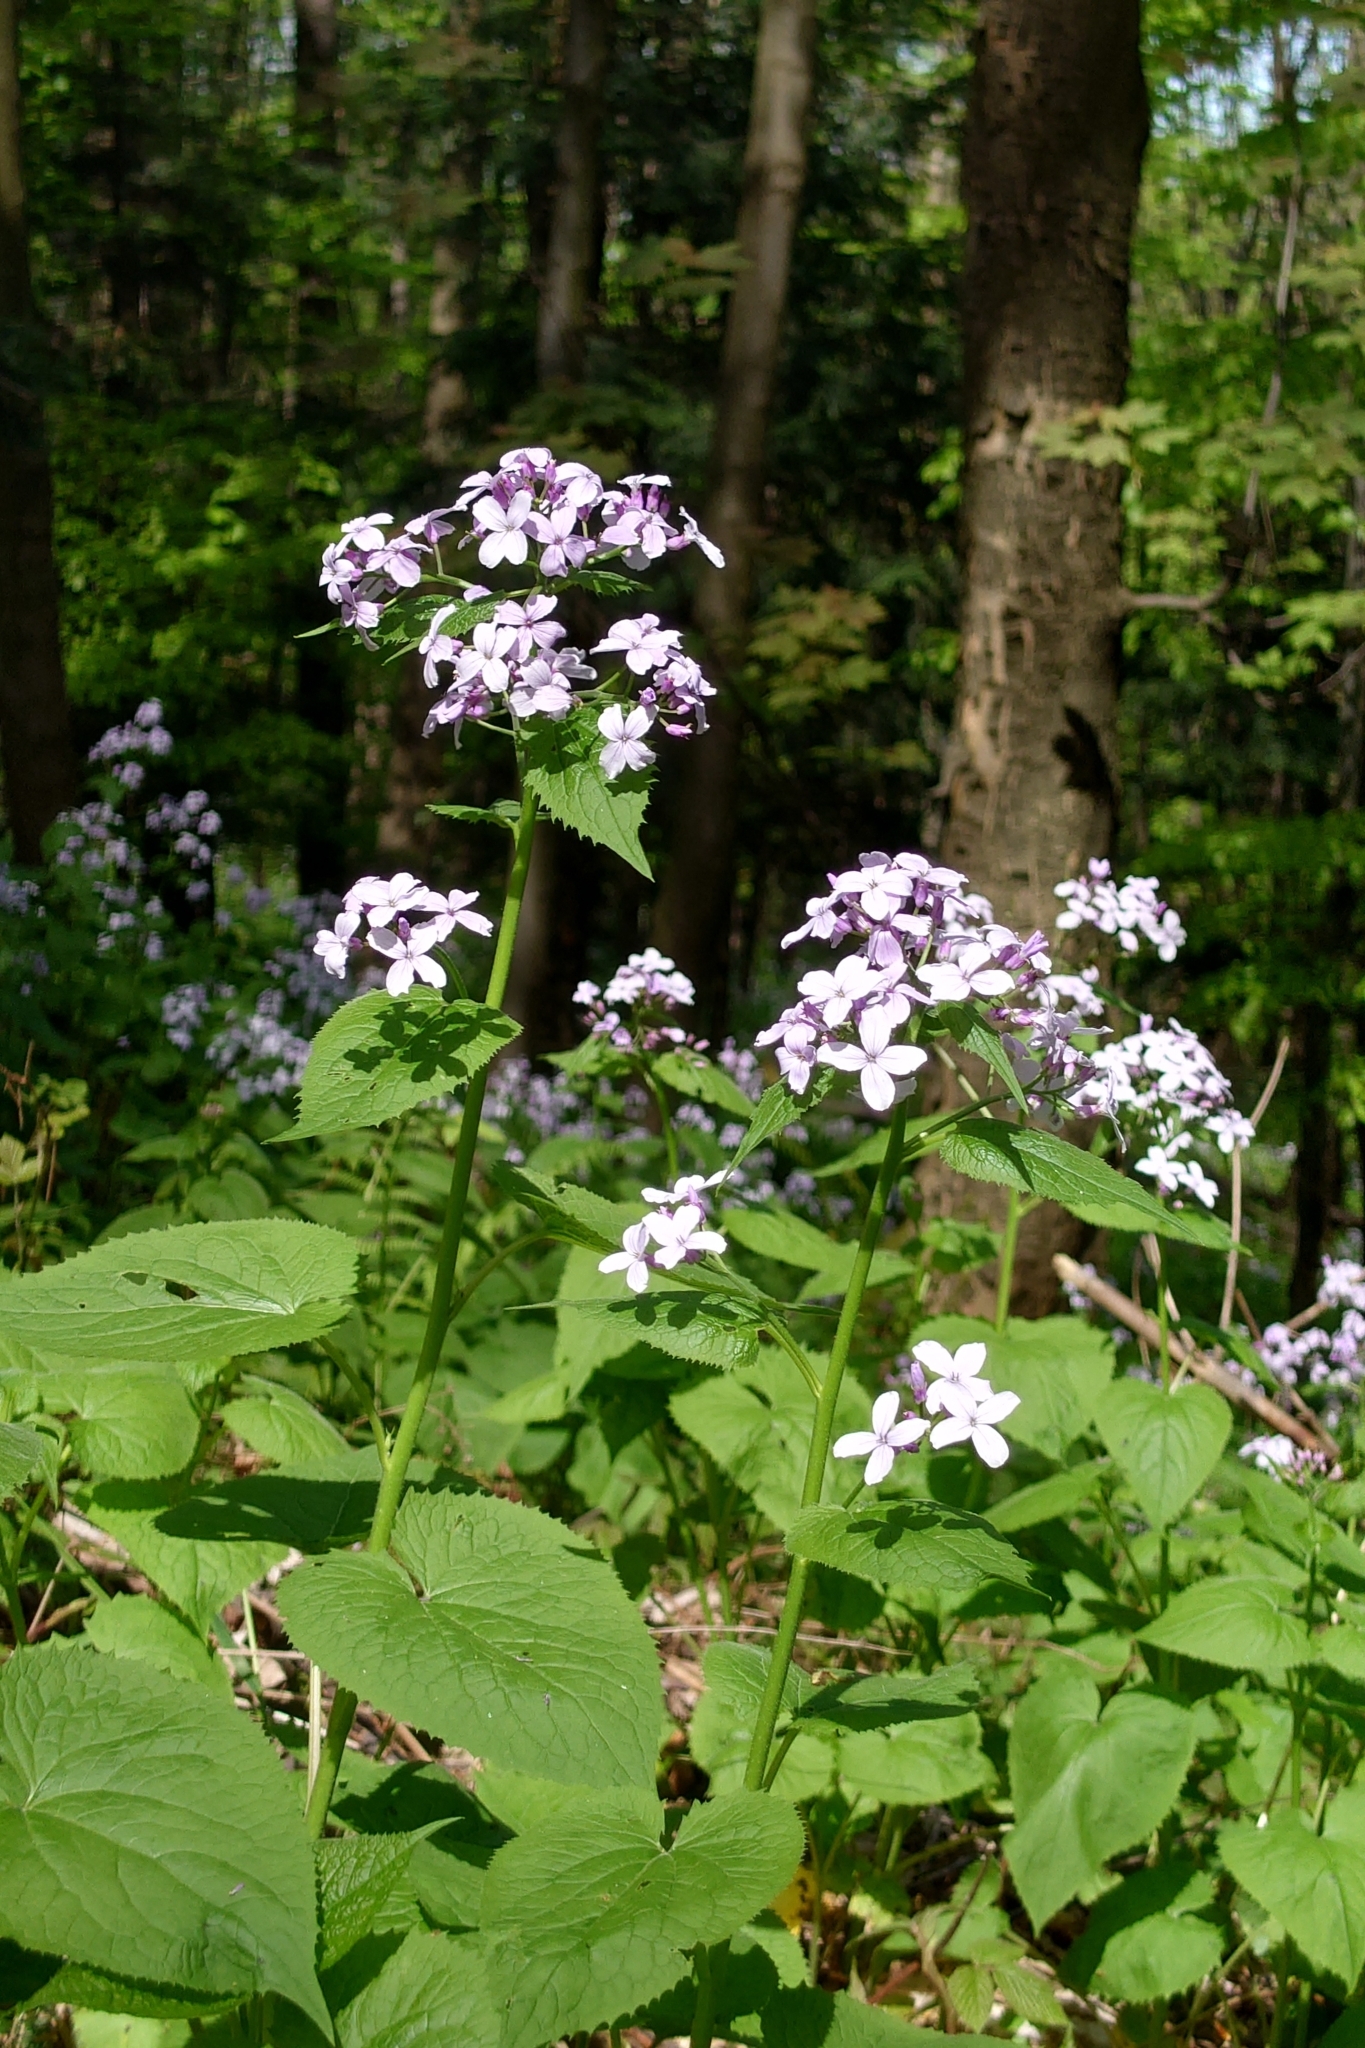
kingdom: Plantae
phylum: Tracheophyta
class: Magnoliopsida
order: Brassicales
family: Brassicaceae
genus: Lunaria
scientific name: Lunaria rediviva
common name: Perennial honesty
